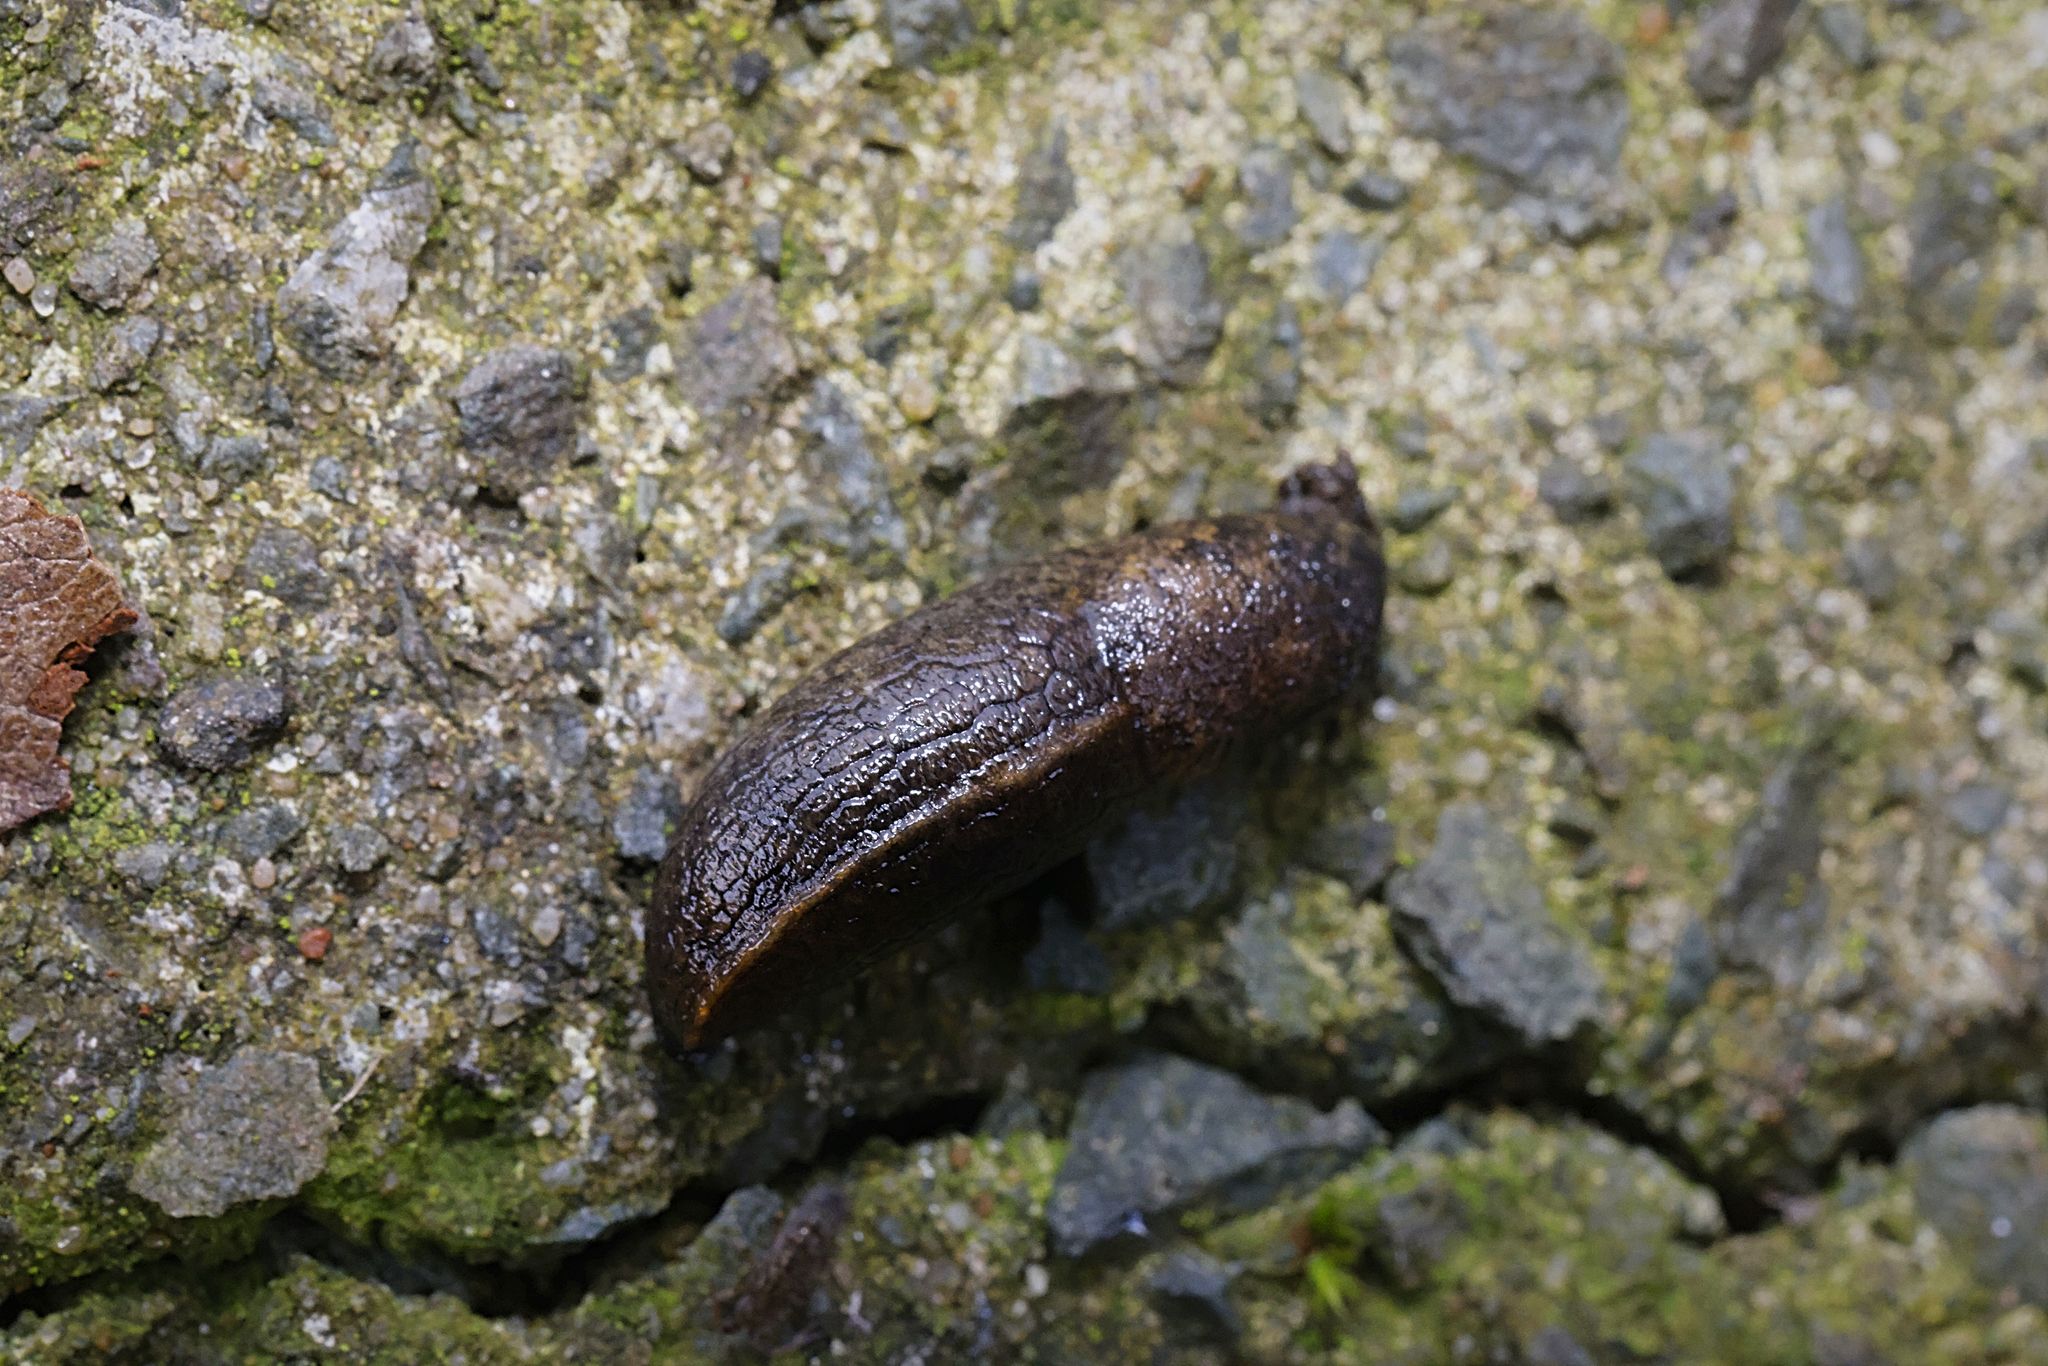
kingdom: Animalia
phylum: Mollusca
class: Gastropoda
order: Stylommatophora
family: Milacidae
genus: Tandonia
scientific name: Tandonia budapestensis
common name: Budapest slug
